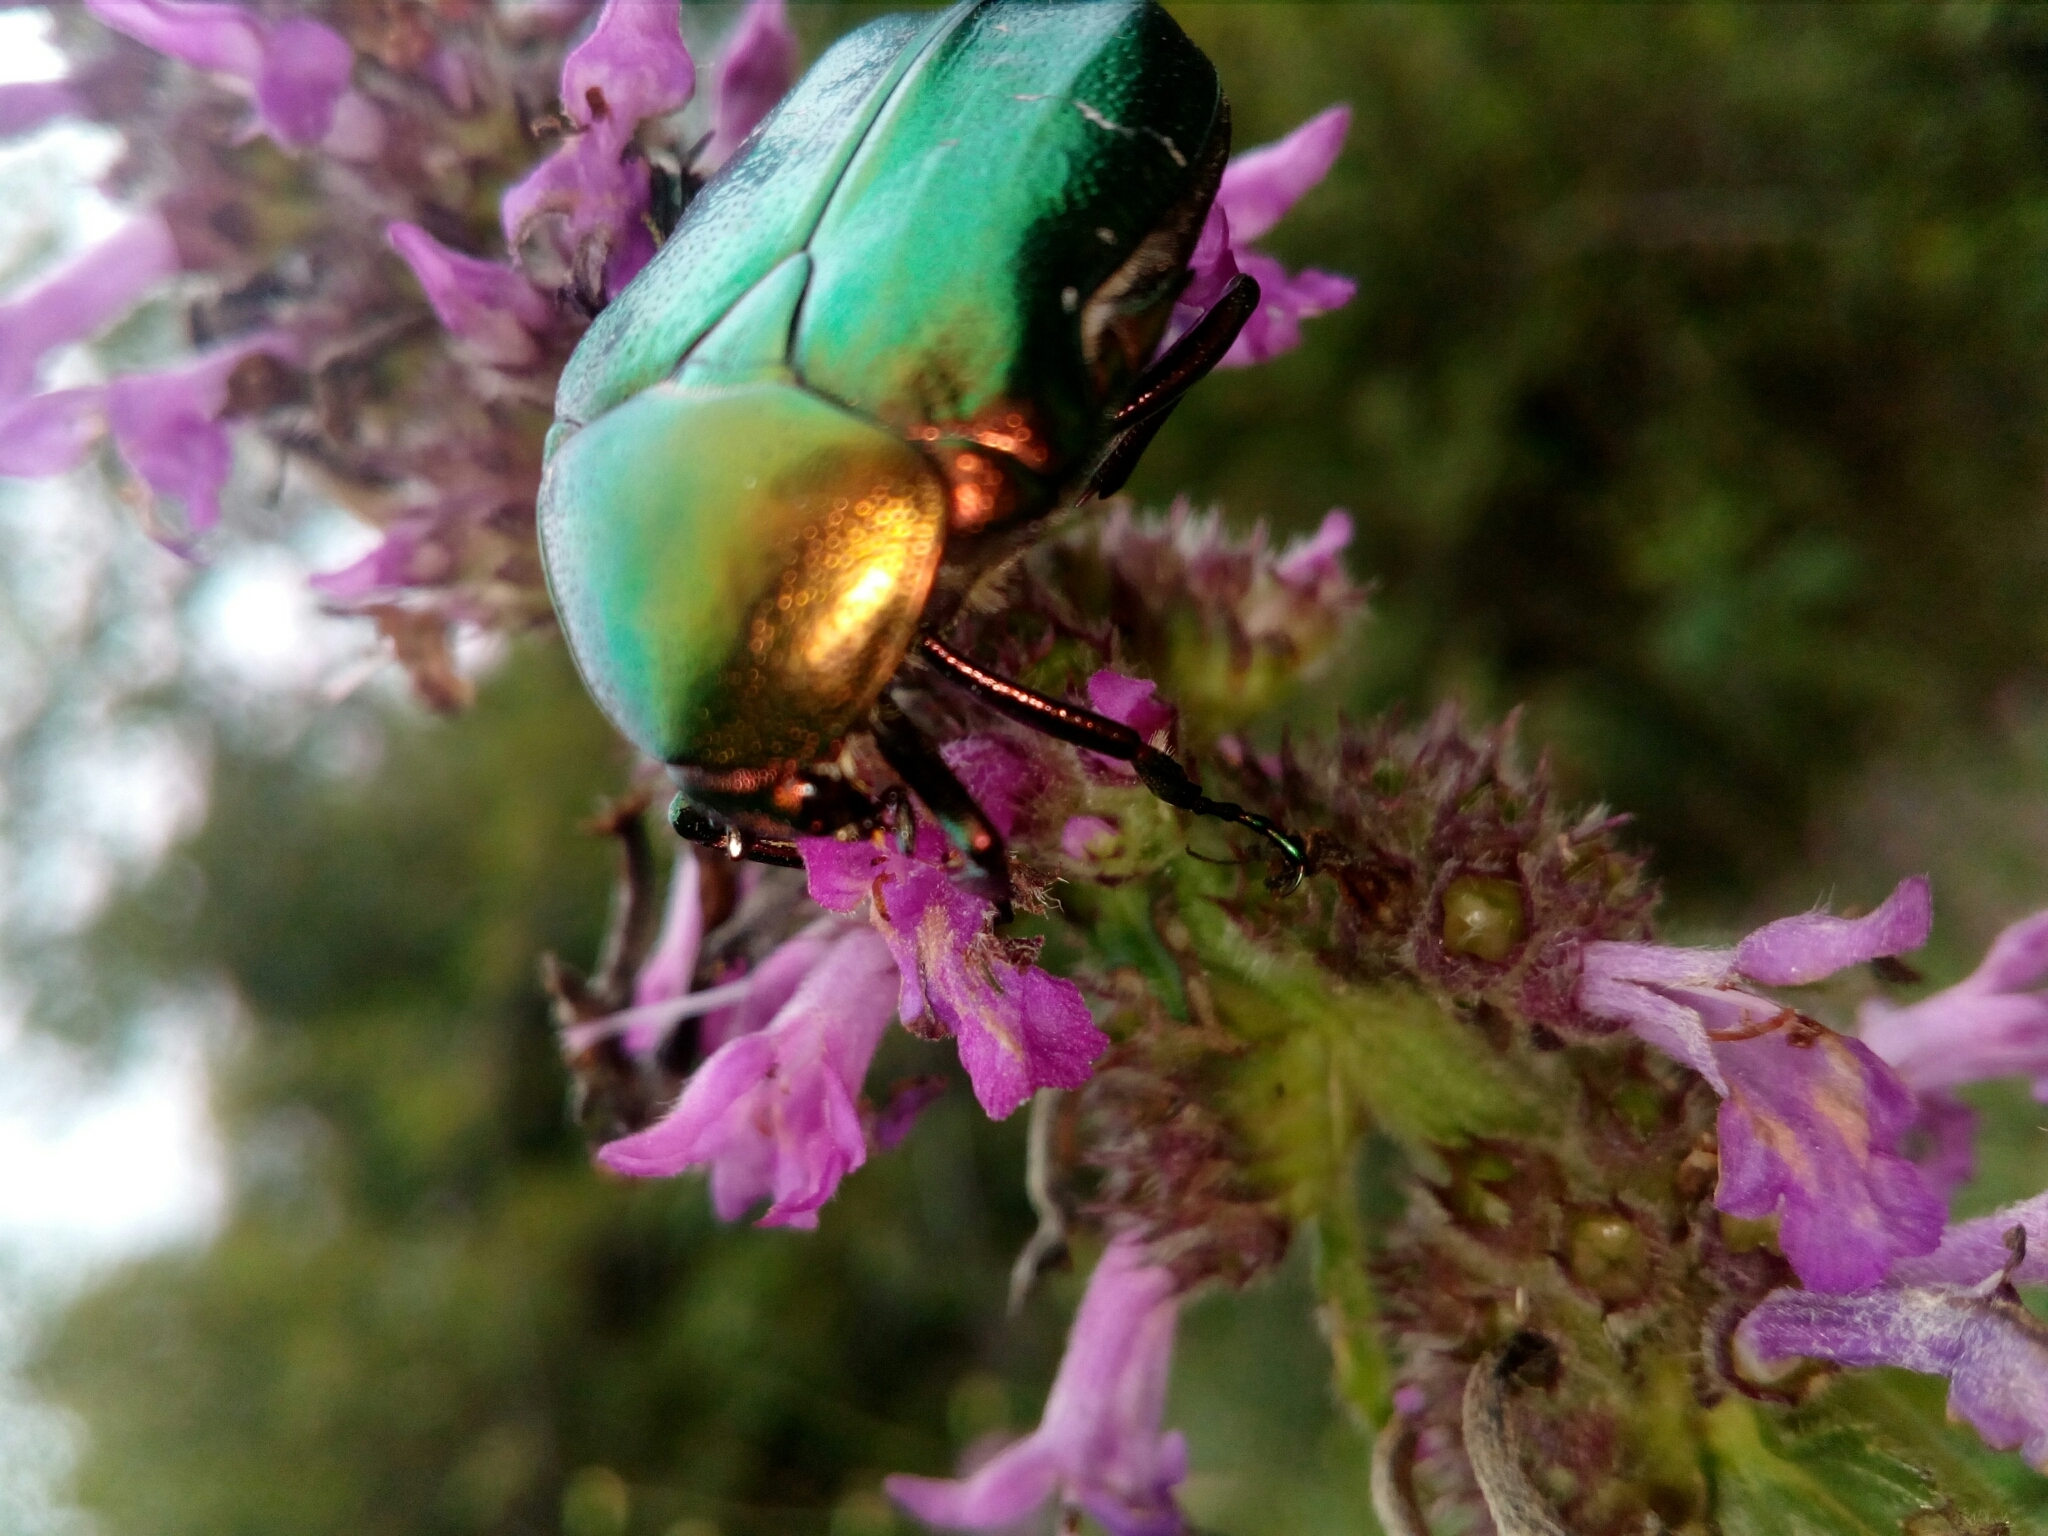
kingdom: Animalia
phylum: Arthropoda
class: Insecta
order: Coleoptera
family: Scarabaeidae
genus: Cetonia
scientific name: Cetonia aurata
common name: Rose chafer
